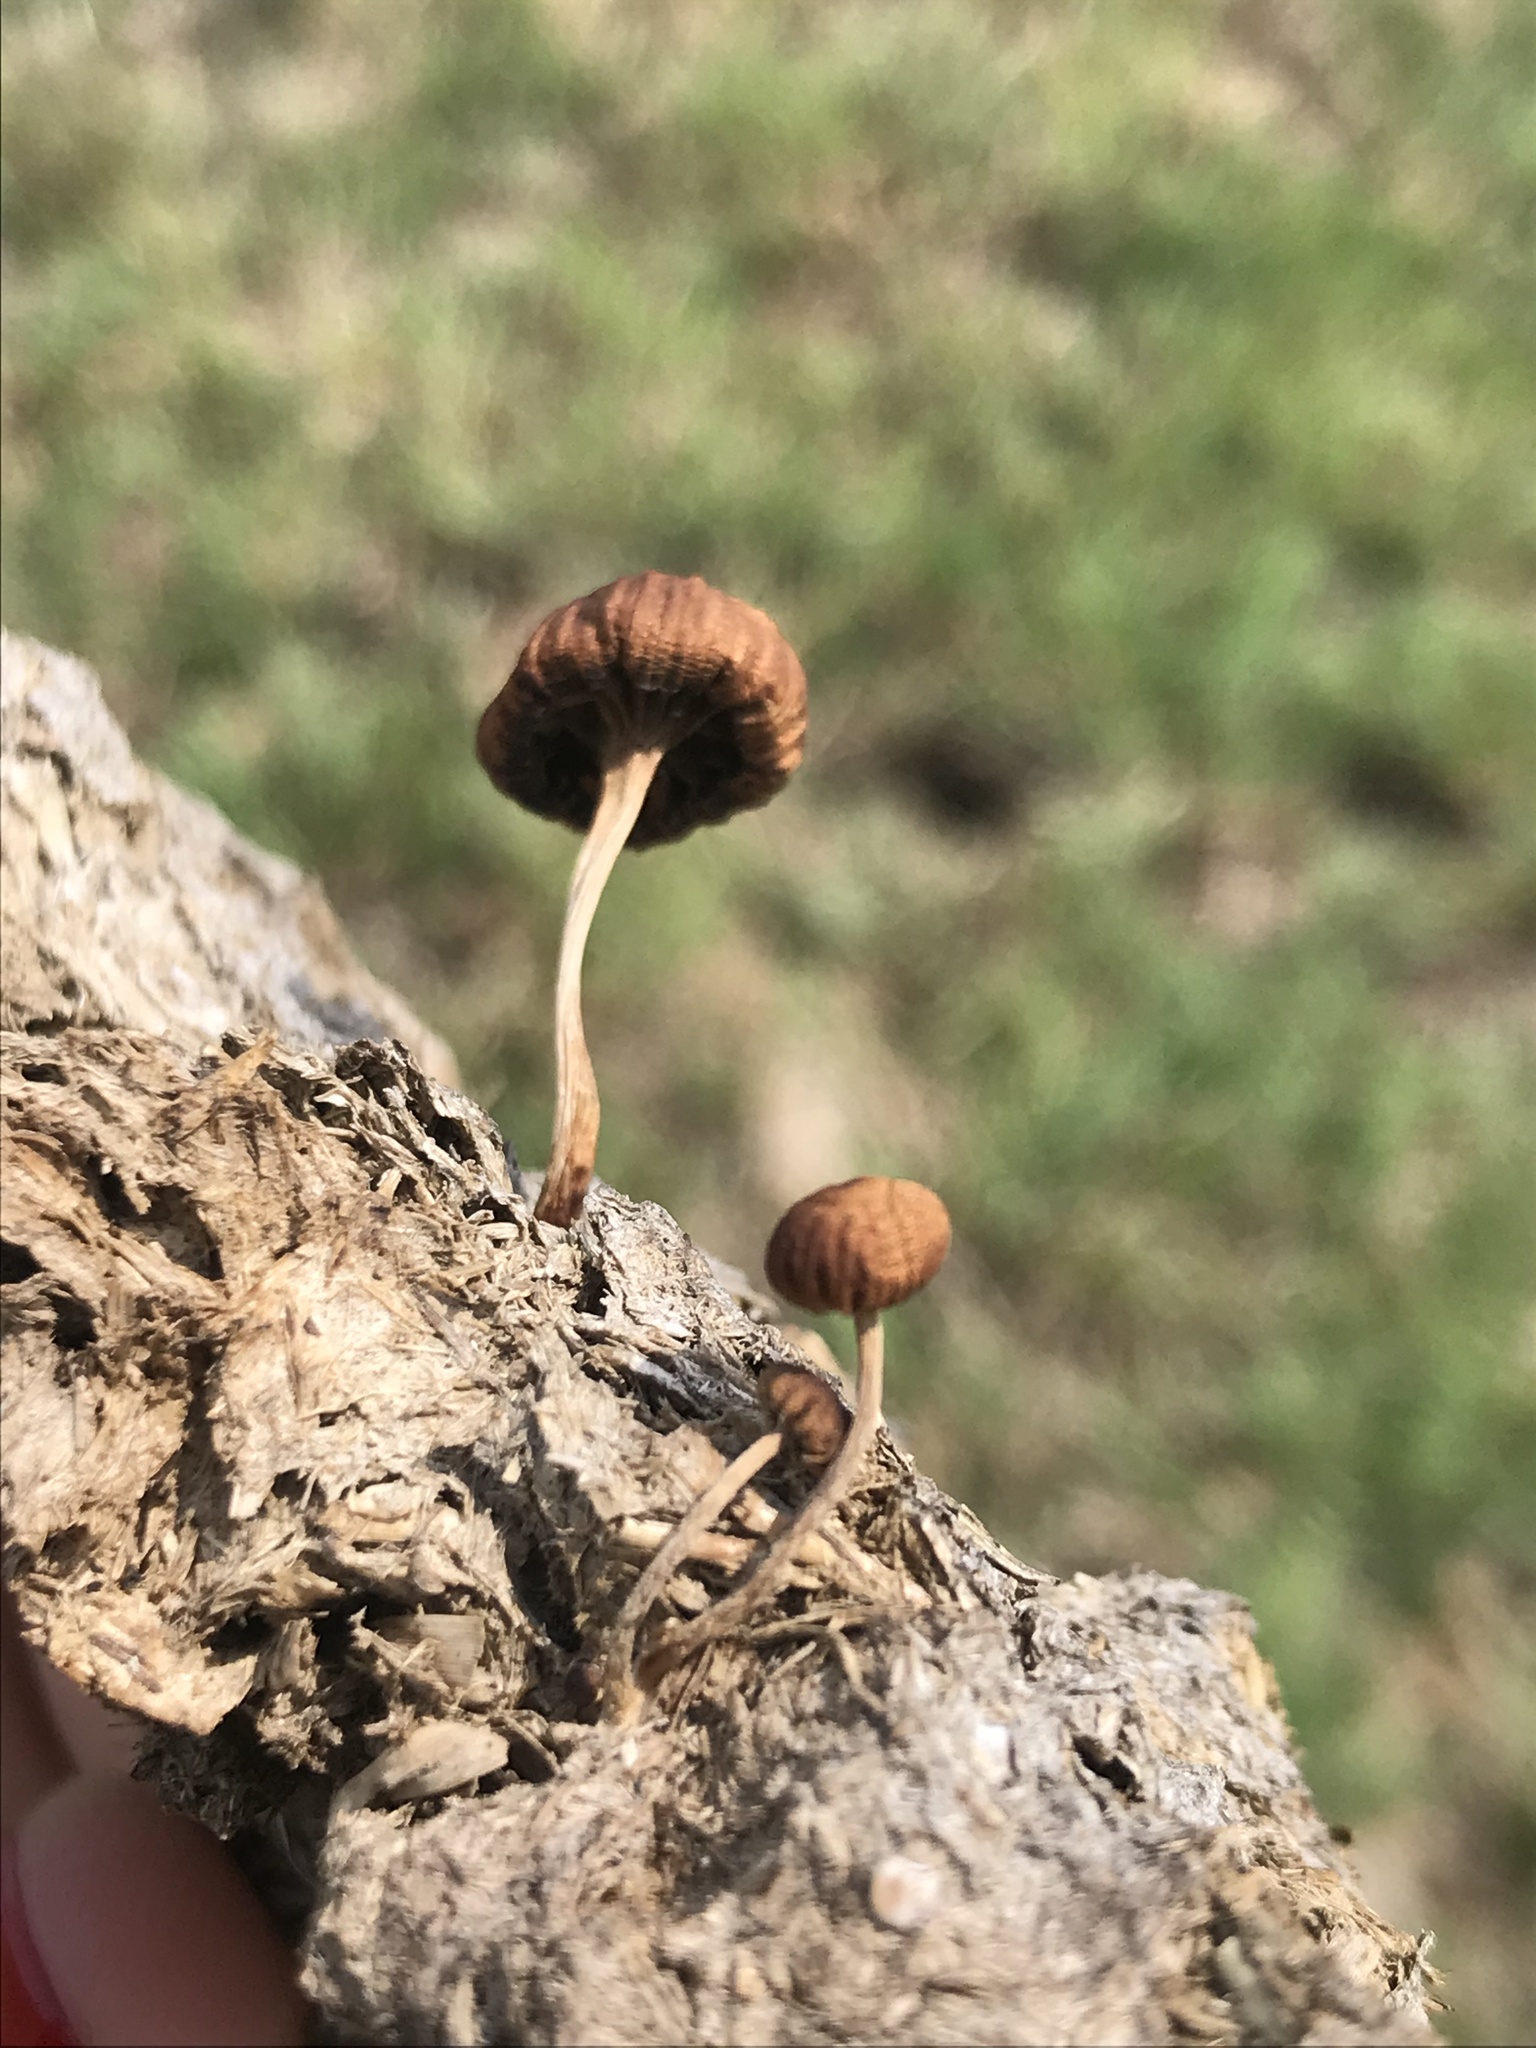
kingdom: Fungi
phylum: Basidiomycota
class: Agaricomycetes
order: Agaricales
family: Strophariaceae
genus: Deconica
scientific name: Deconica coprophila
